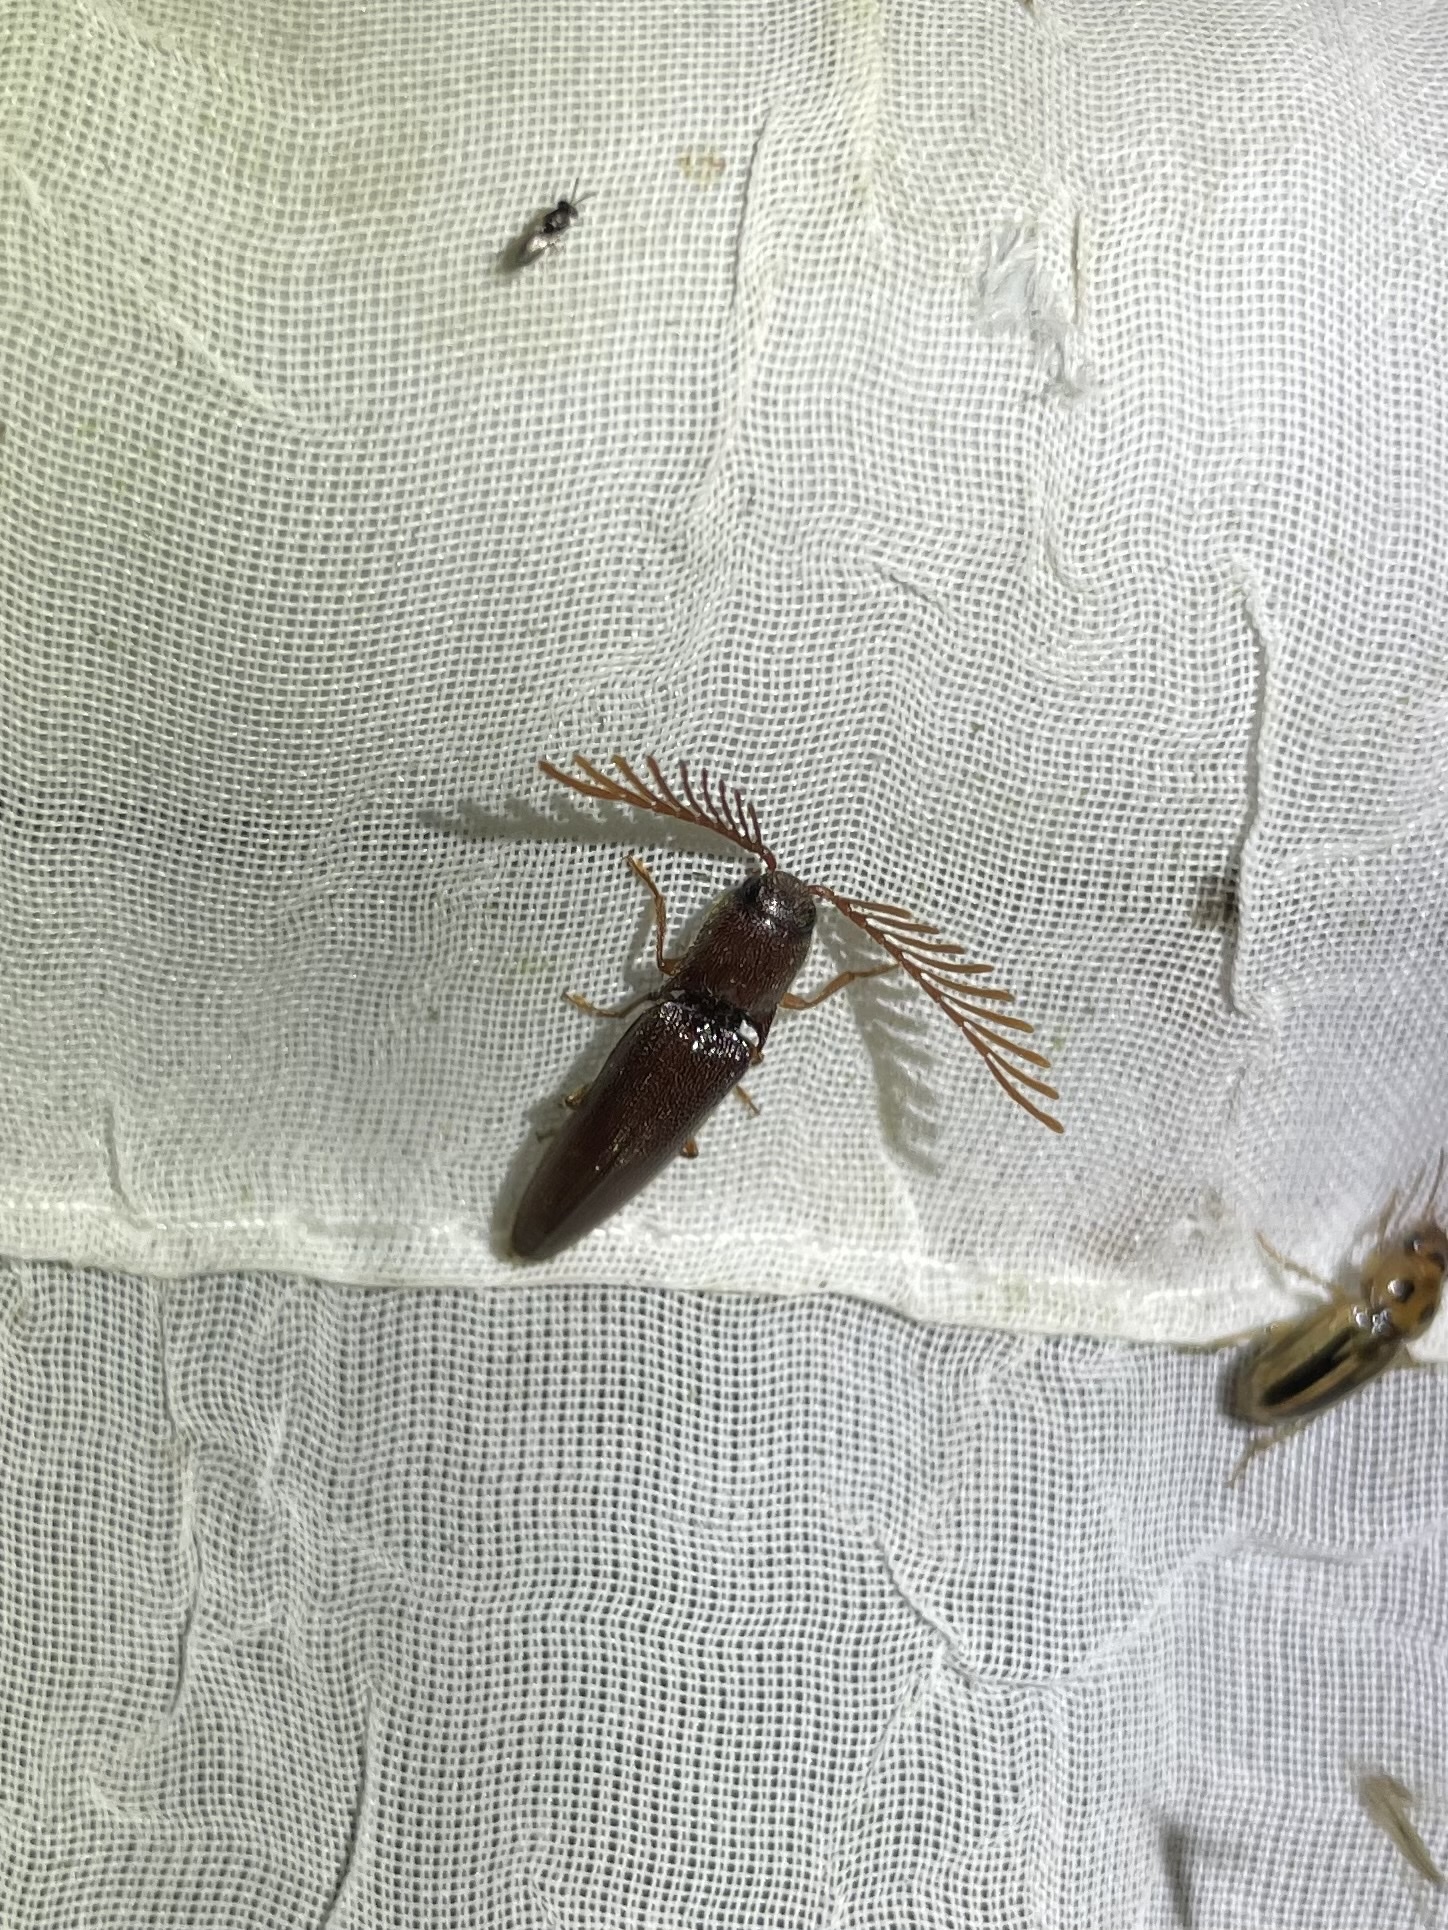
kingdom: Animalia
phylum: Arthropoda
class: Insecta
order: Coleoptera
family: Elateridae
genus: Dicrepidius
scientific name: Dicrepidius palmatus
